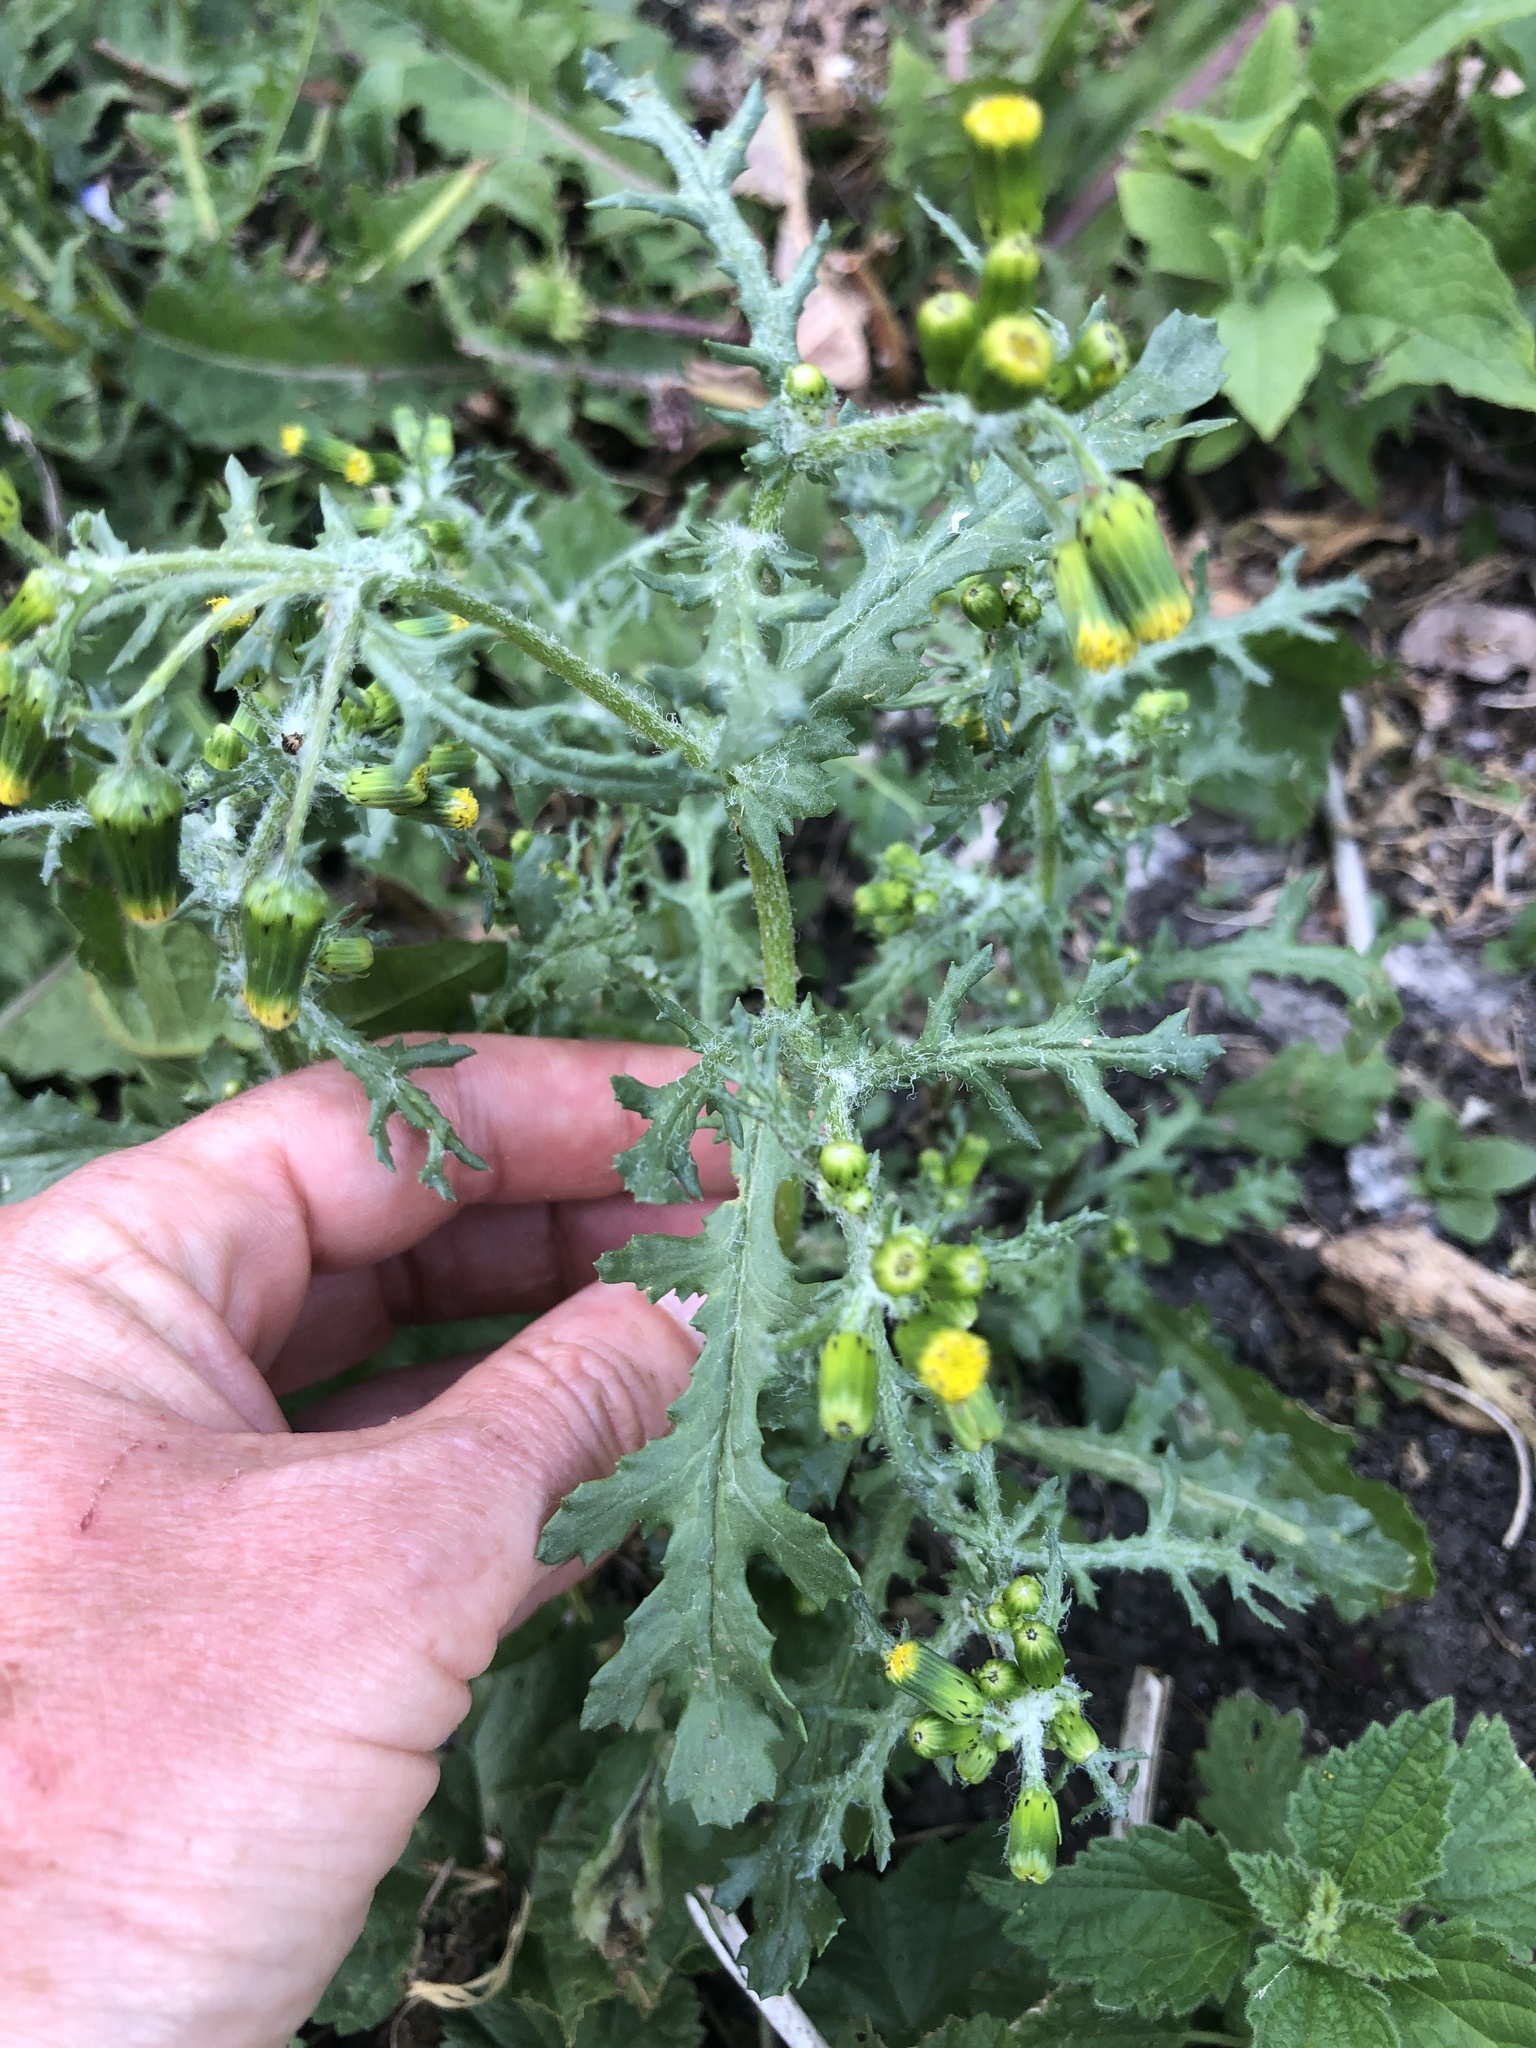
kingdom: Plantae
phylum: Tracheophyta
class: Magnoliopsida
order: Asterales
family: Asteraceae
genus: Senecio
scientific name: Senecio vulgaris
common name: Old-man-in-the-spring
